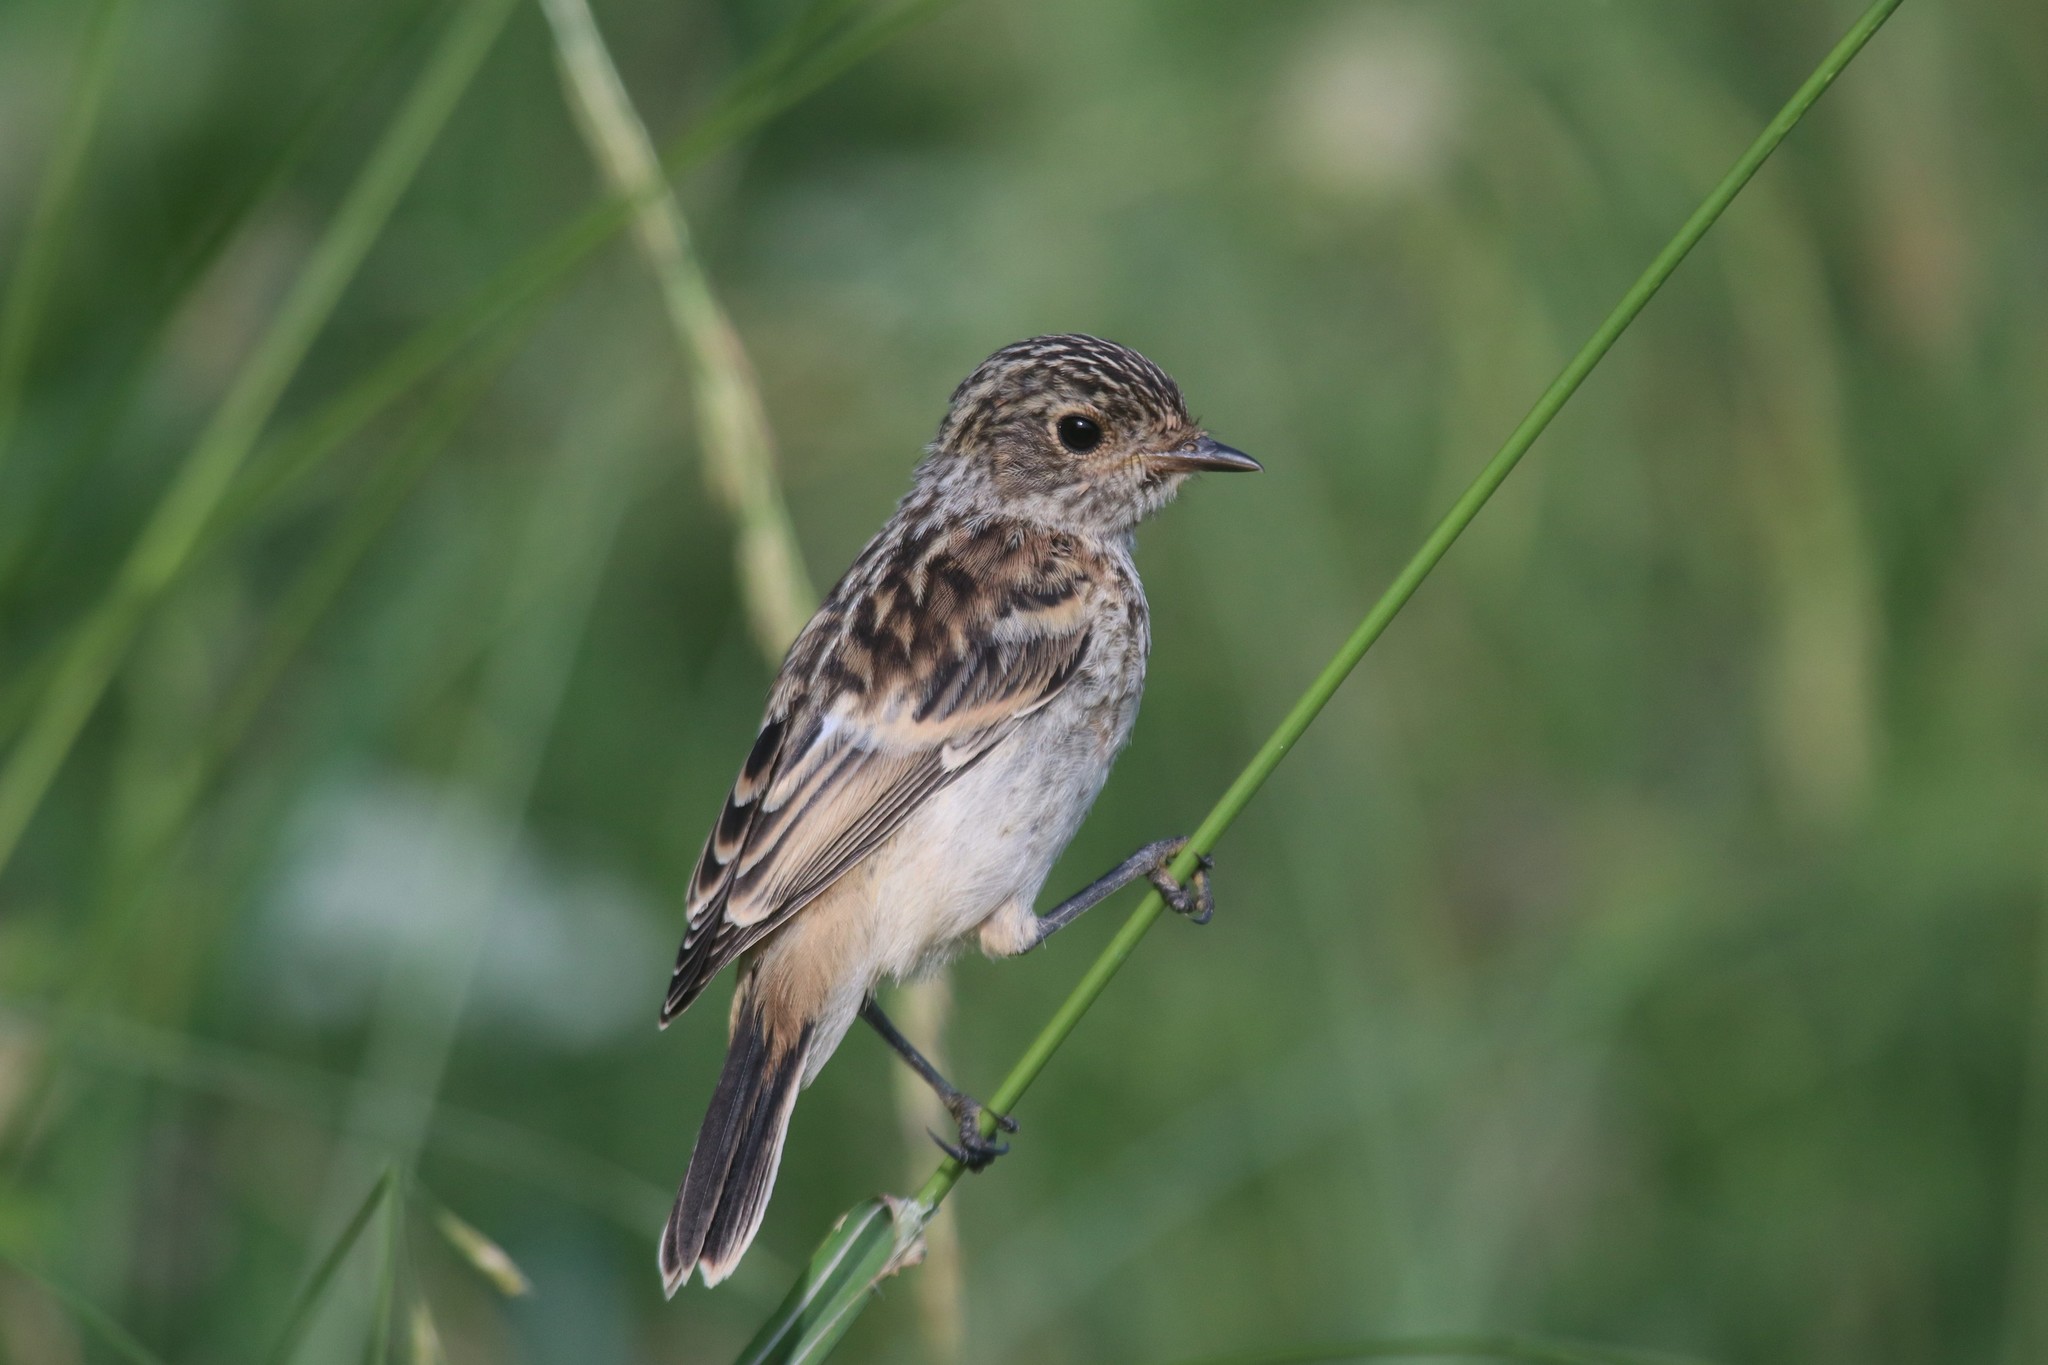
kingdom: Animalia
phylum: Chordata
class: Aves
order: Passeriformes
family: Muscicapidae
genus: Saxicola
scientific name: Saxicola maurus
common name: Siberian stonechat
